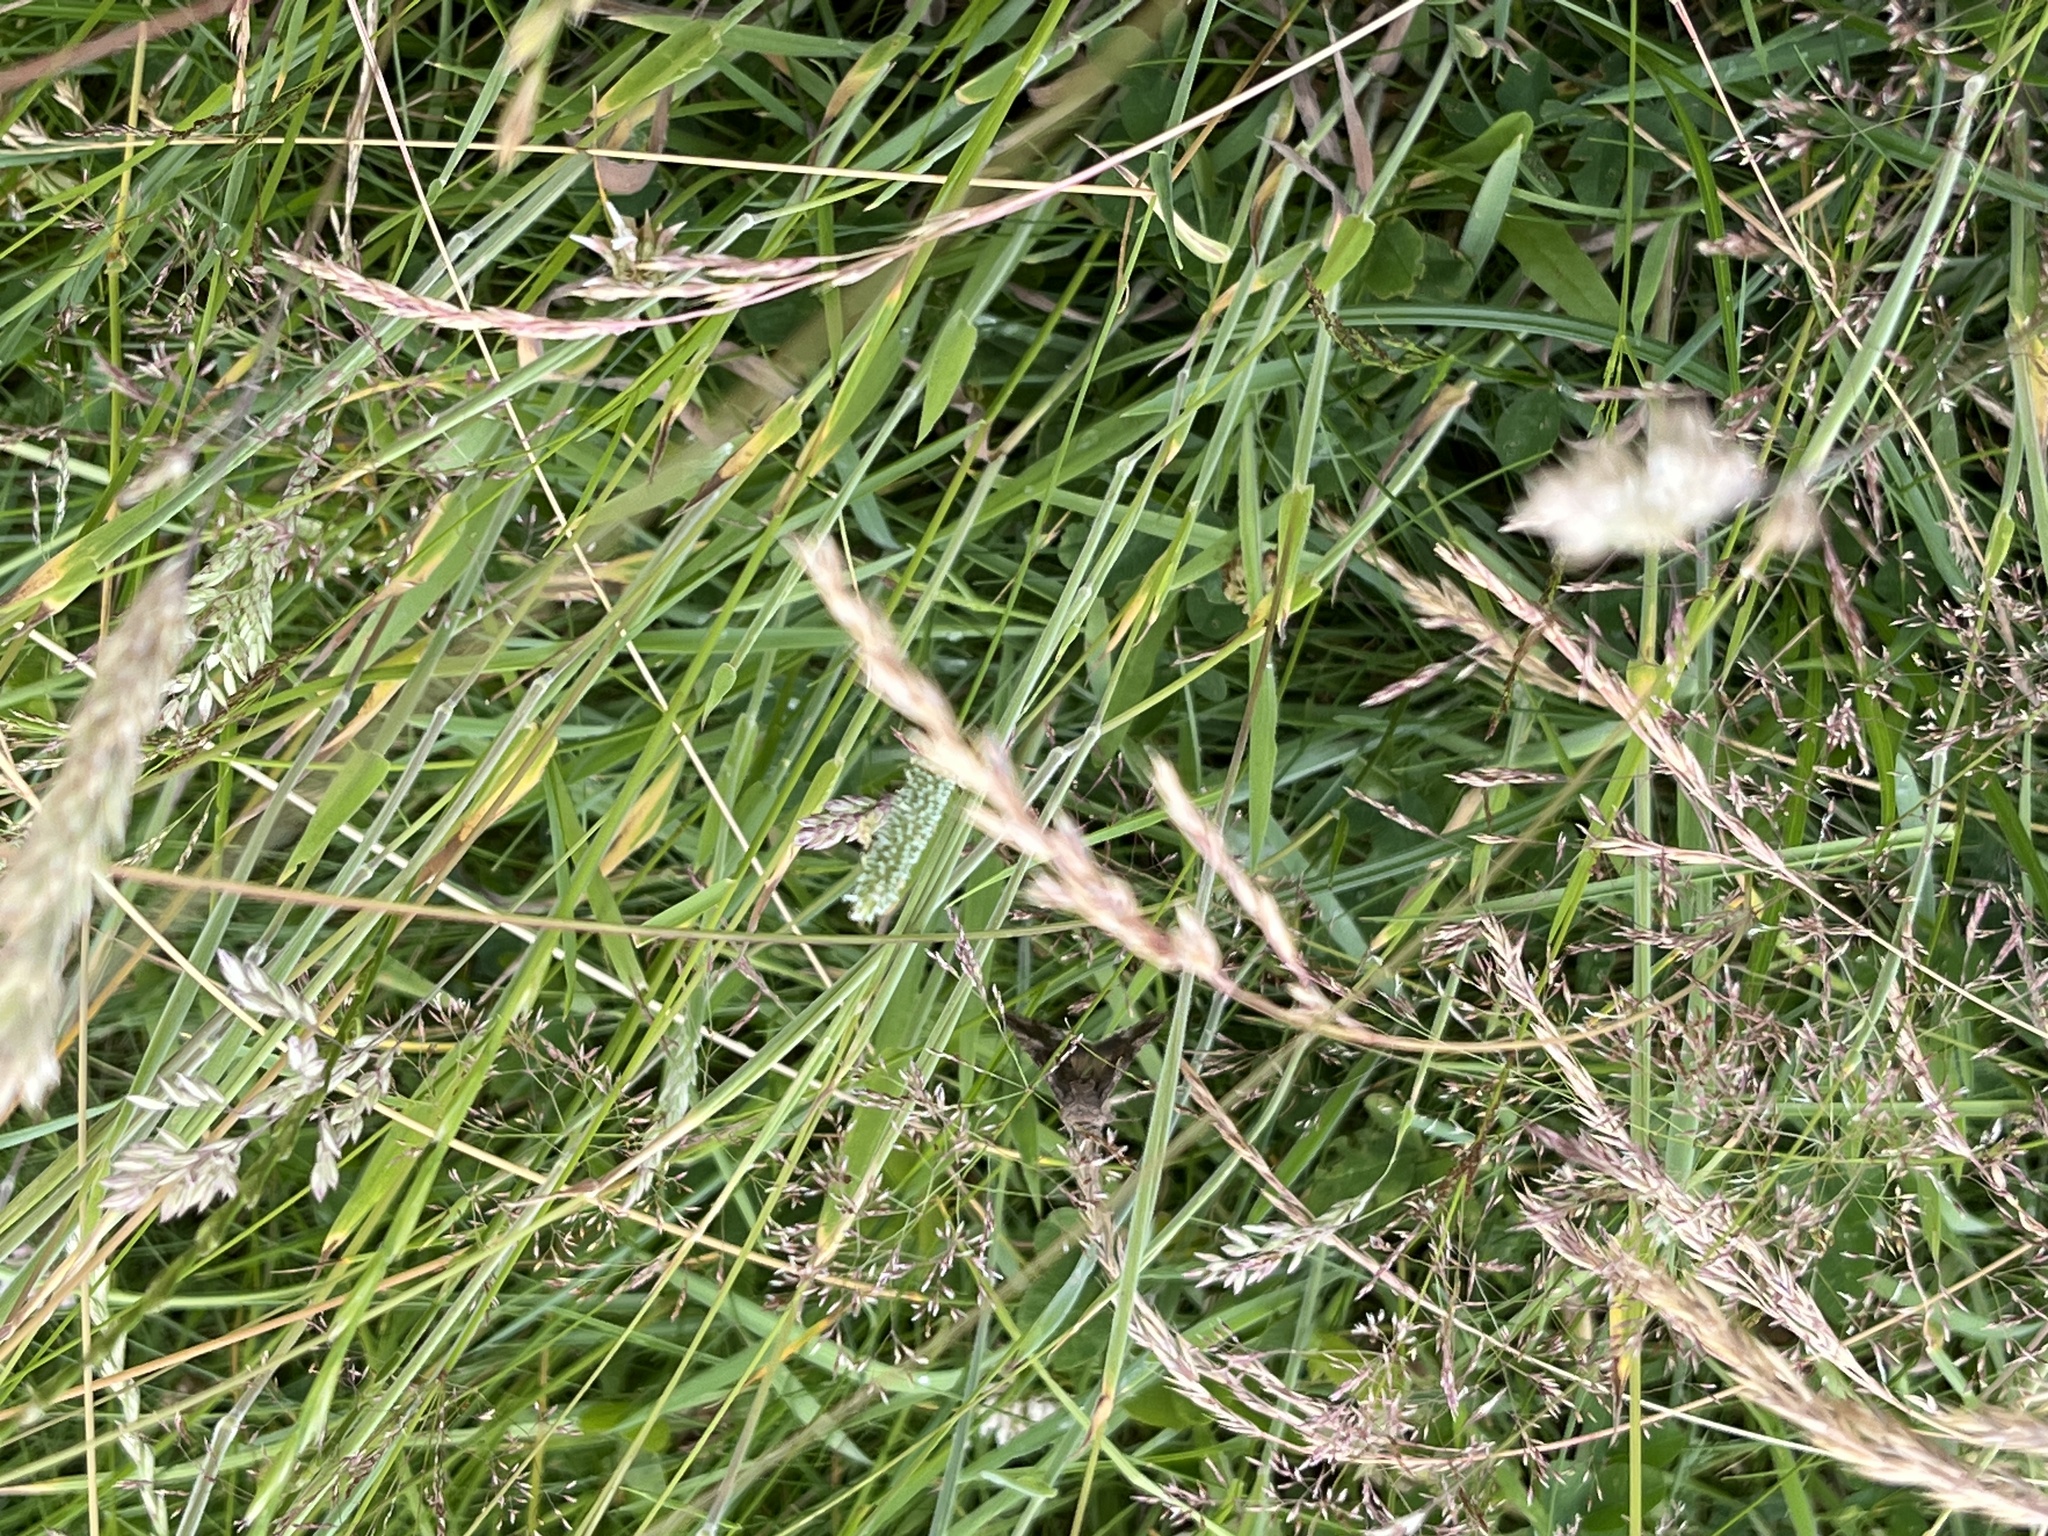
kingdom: Animalia
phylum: Arthropoda
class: Insecta
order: Lepidoptera
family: Noctuidae
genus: Autographa
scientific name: Autographa gamma
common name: Silver y
